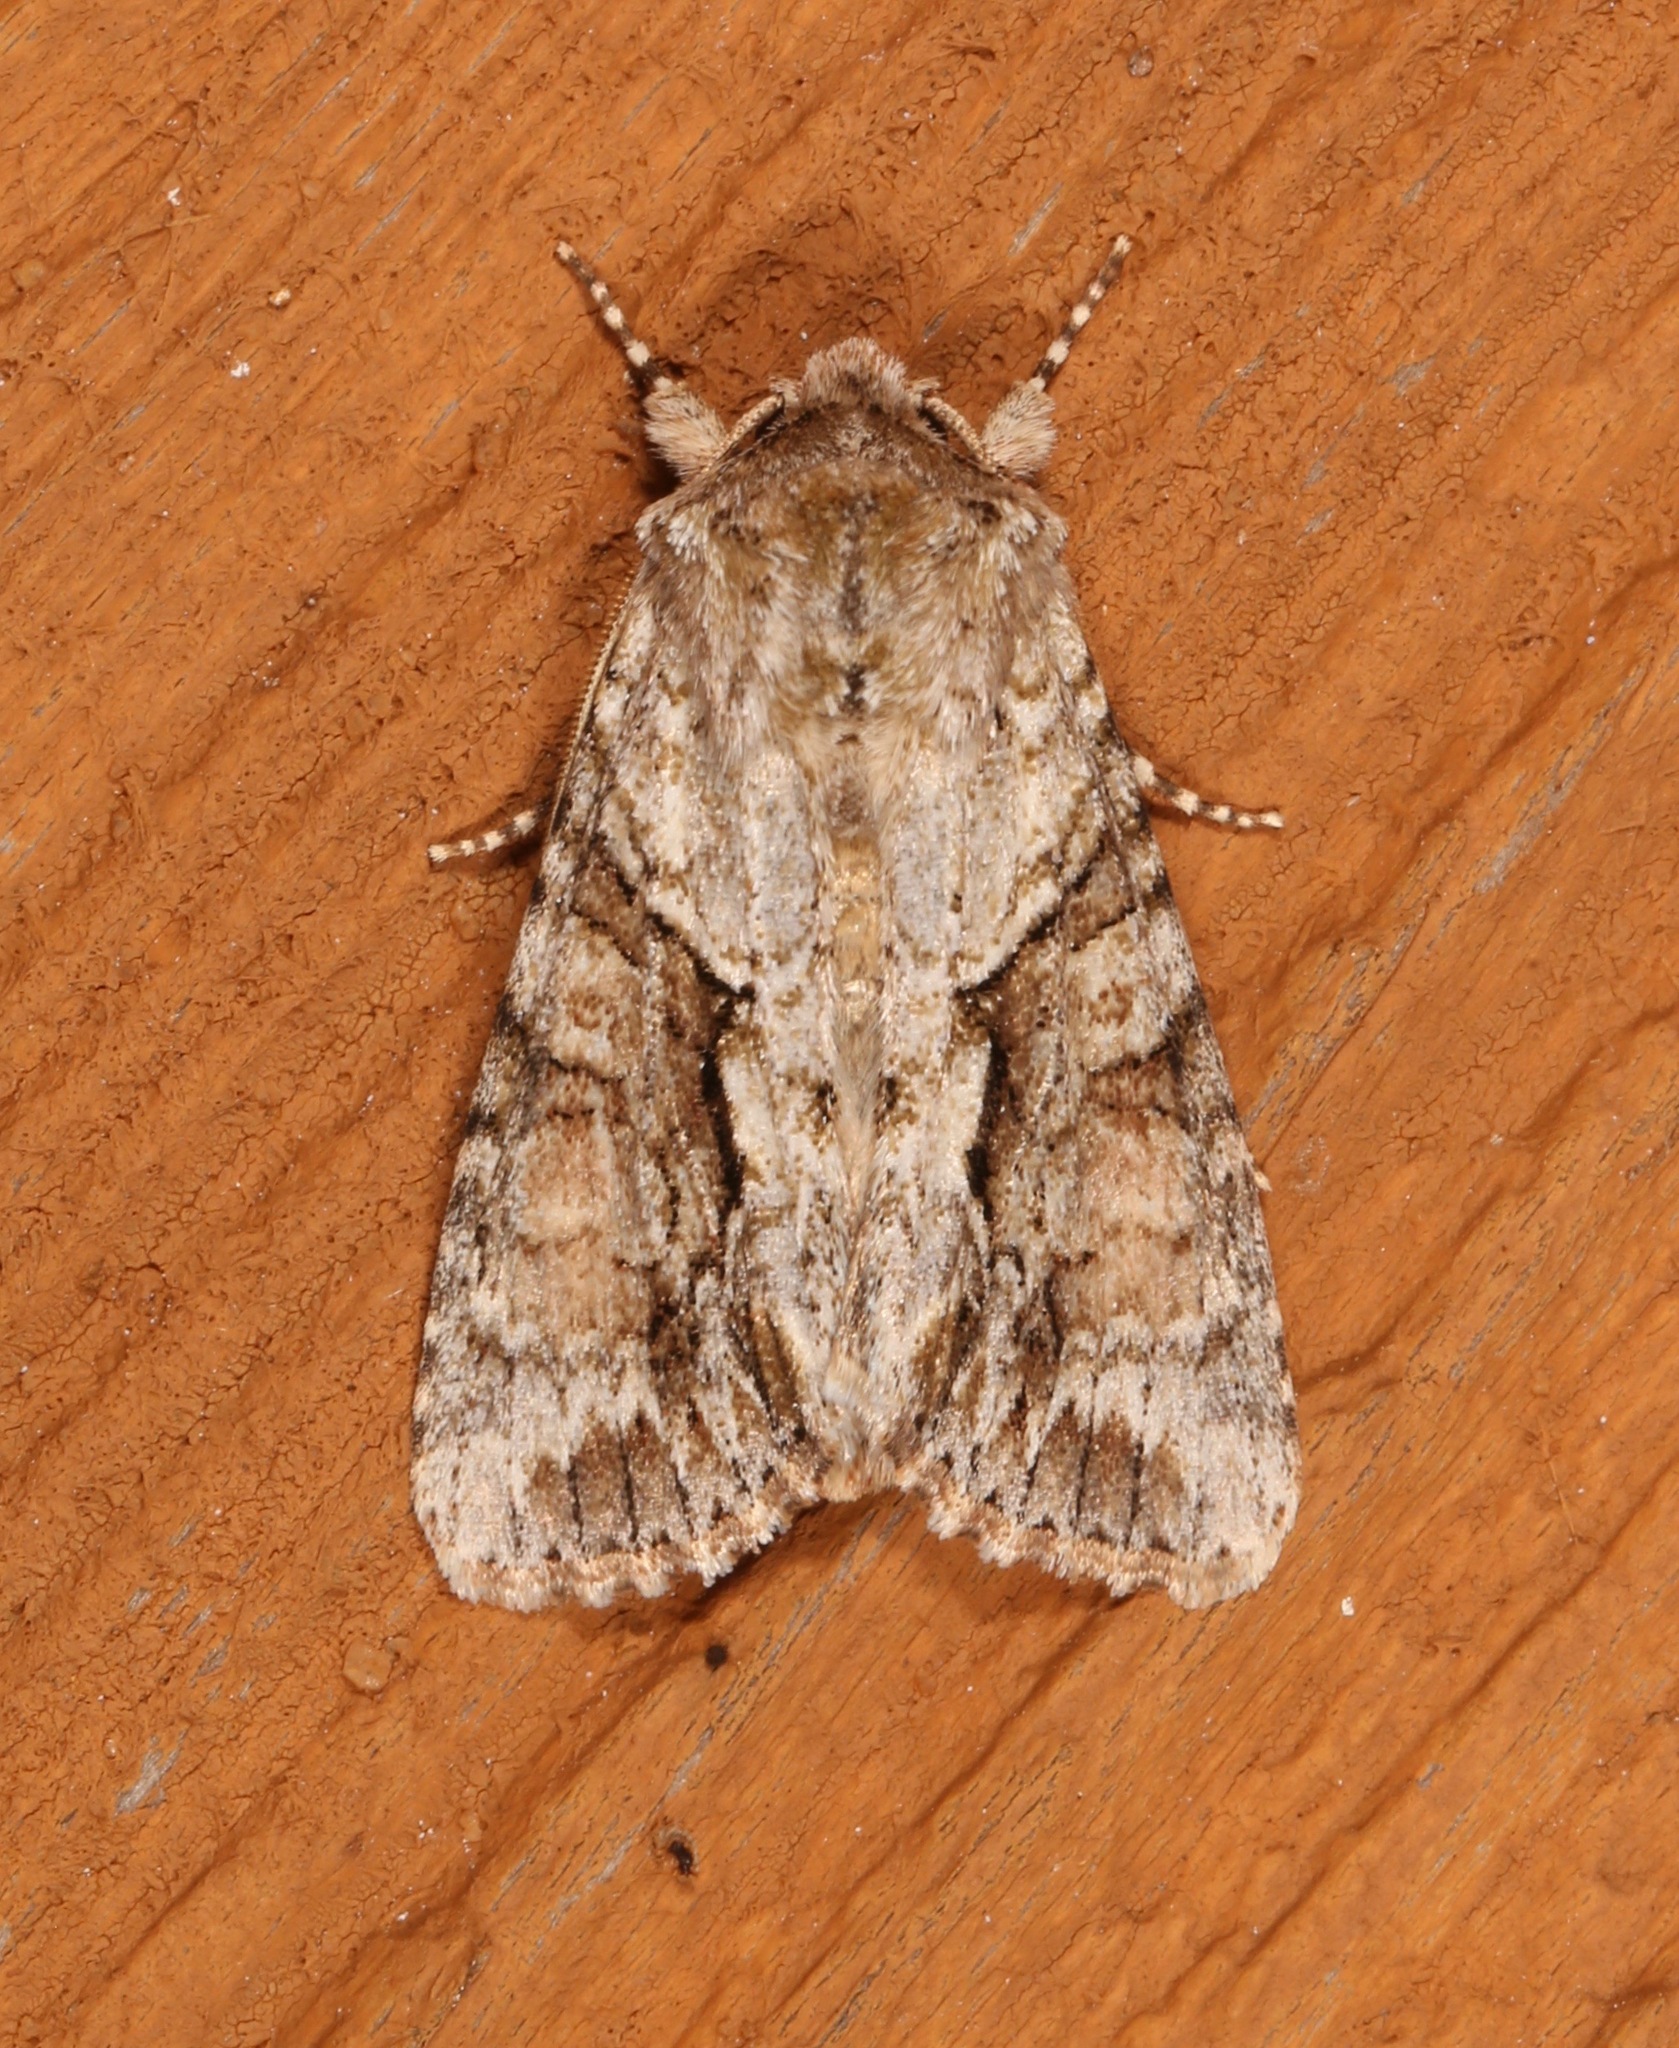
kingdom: Animalia
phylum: Arthropoda
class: Insecta
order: Lepidoptera
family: Noctuidae
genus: Achatia
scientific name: Achatia distincta
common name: Distinct quaker
